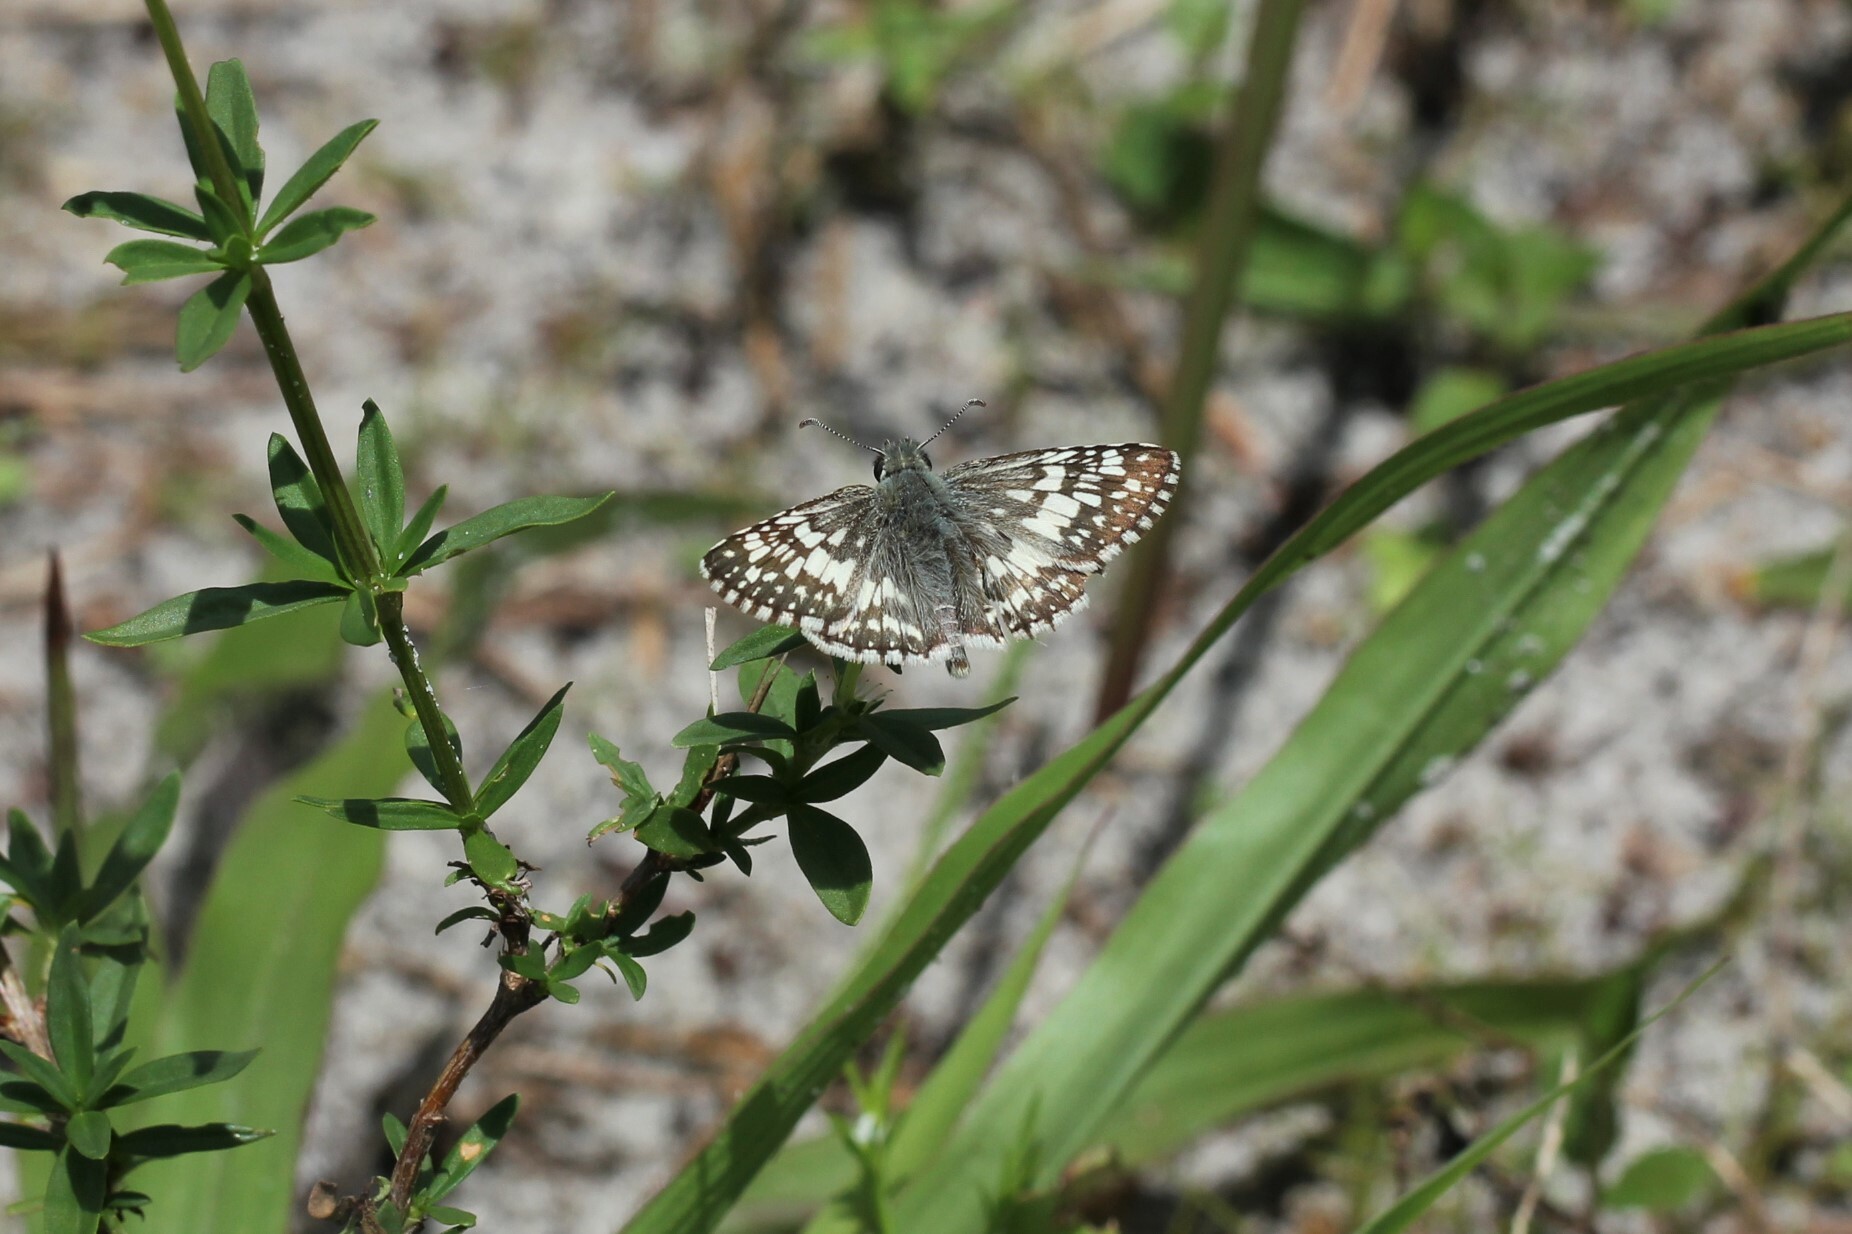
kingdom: Animalia
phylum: Arthropoda
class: Insecta
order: Lepidoptera
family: Hesperiidae
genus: Burnsius
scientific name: Burnsius albezens
